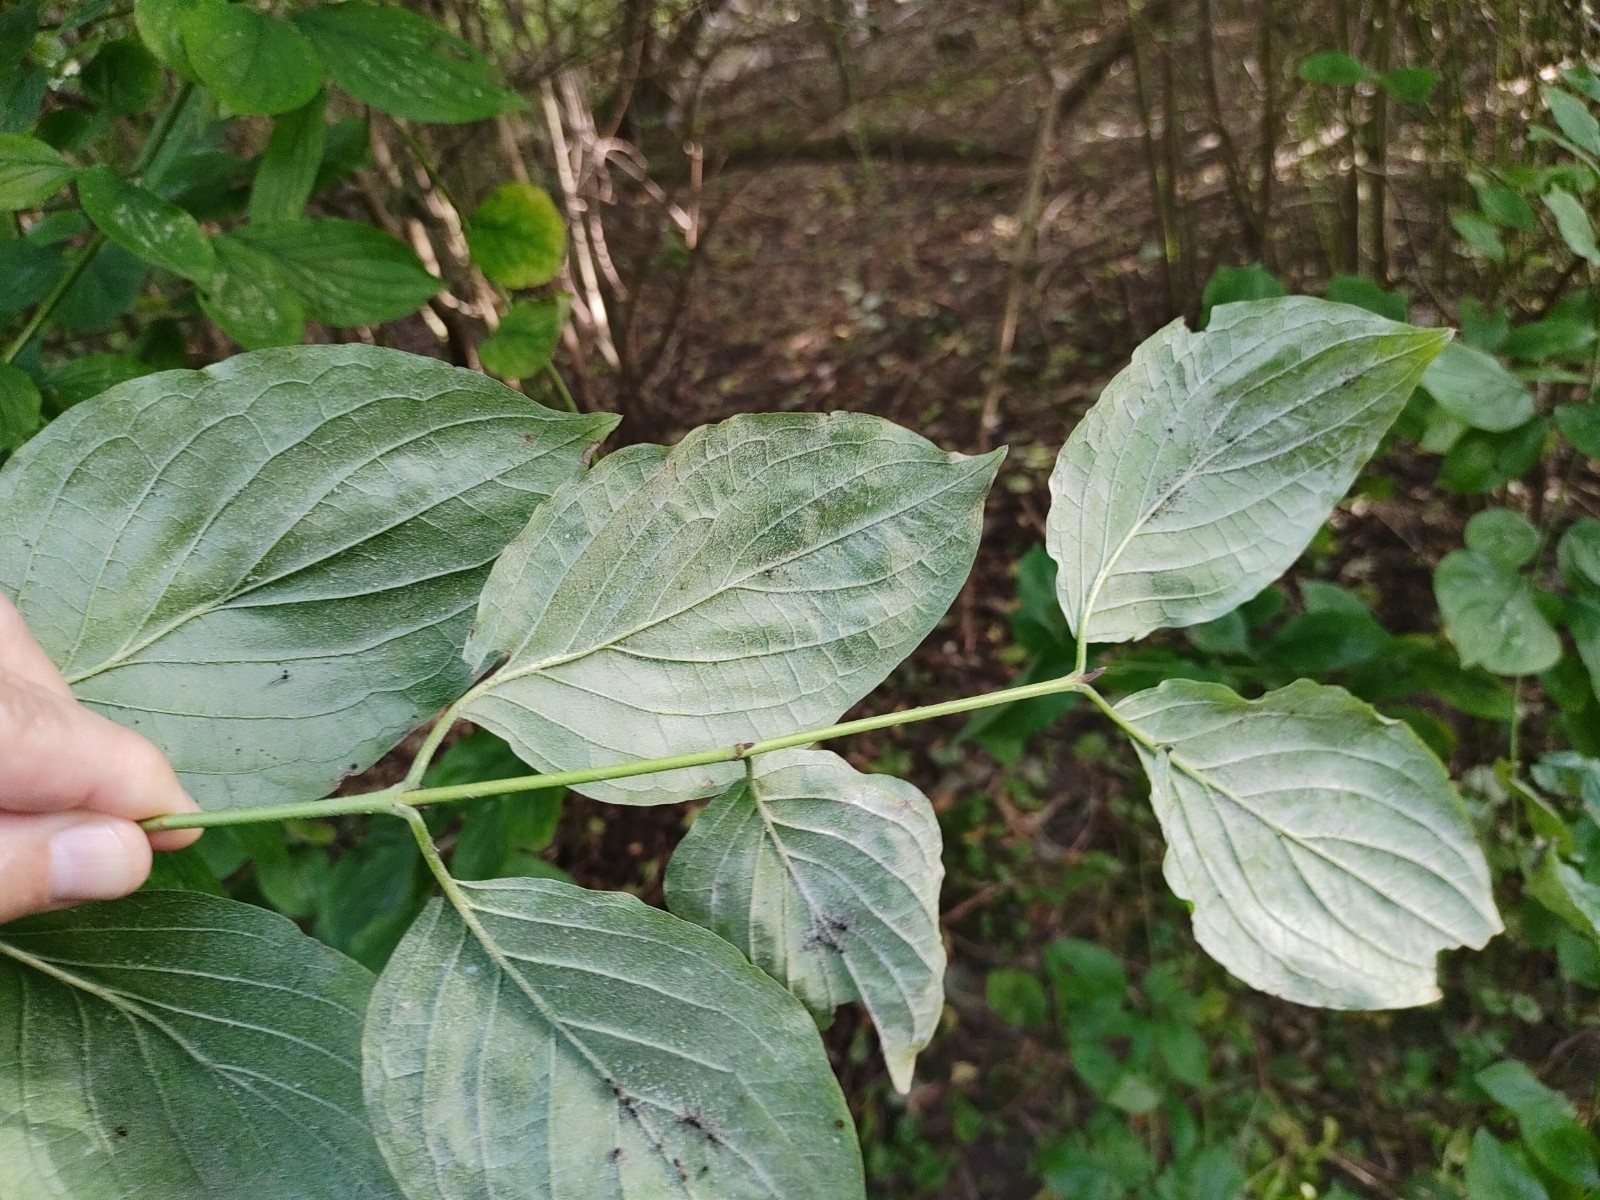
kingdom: Plantae
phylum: Tracheophyta
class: Magnoliopsida
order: Cornales
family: Cornaceae
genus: Cornus
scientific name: Cornus sanguinea
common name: Dogwood
